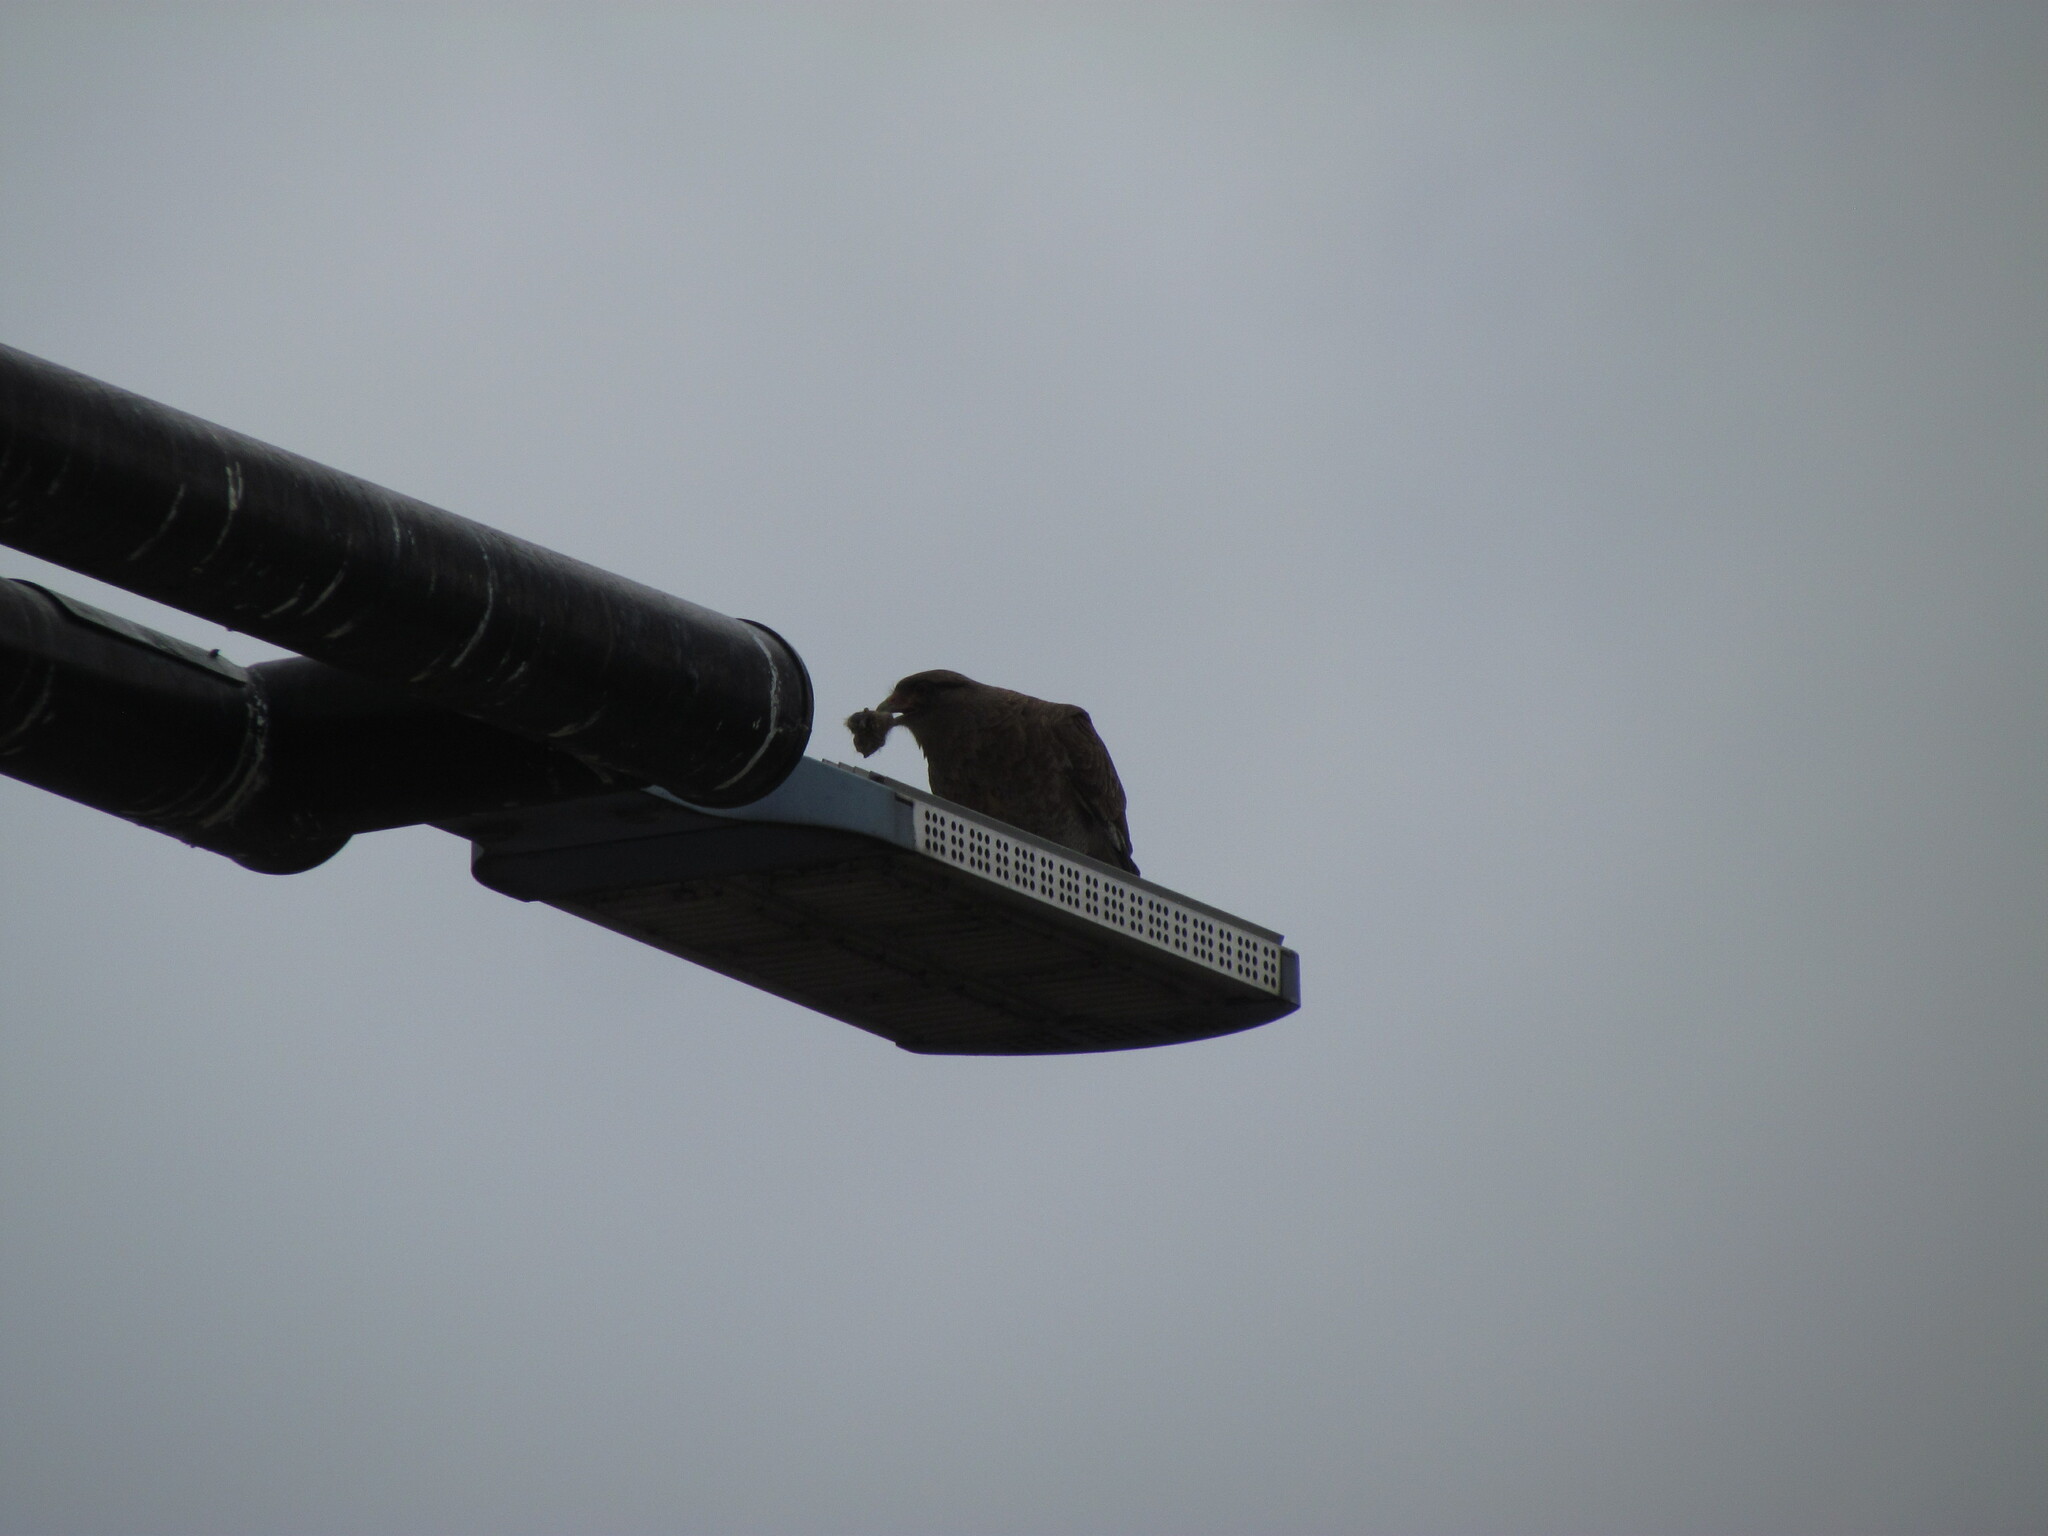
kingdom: Animalia
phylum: Chordata
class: Aves
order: Falconiformes
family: Falconidae
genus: Daptrius
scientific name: Daptrius
